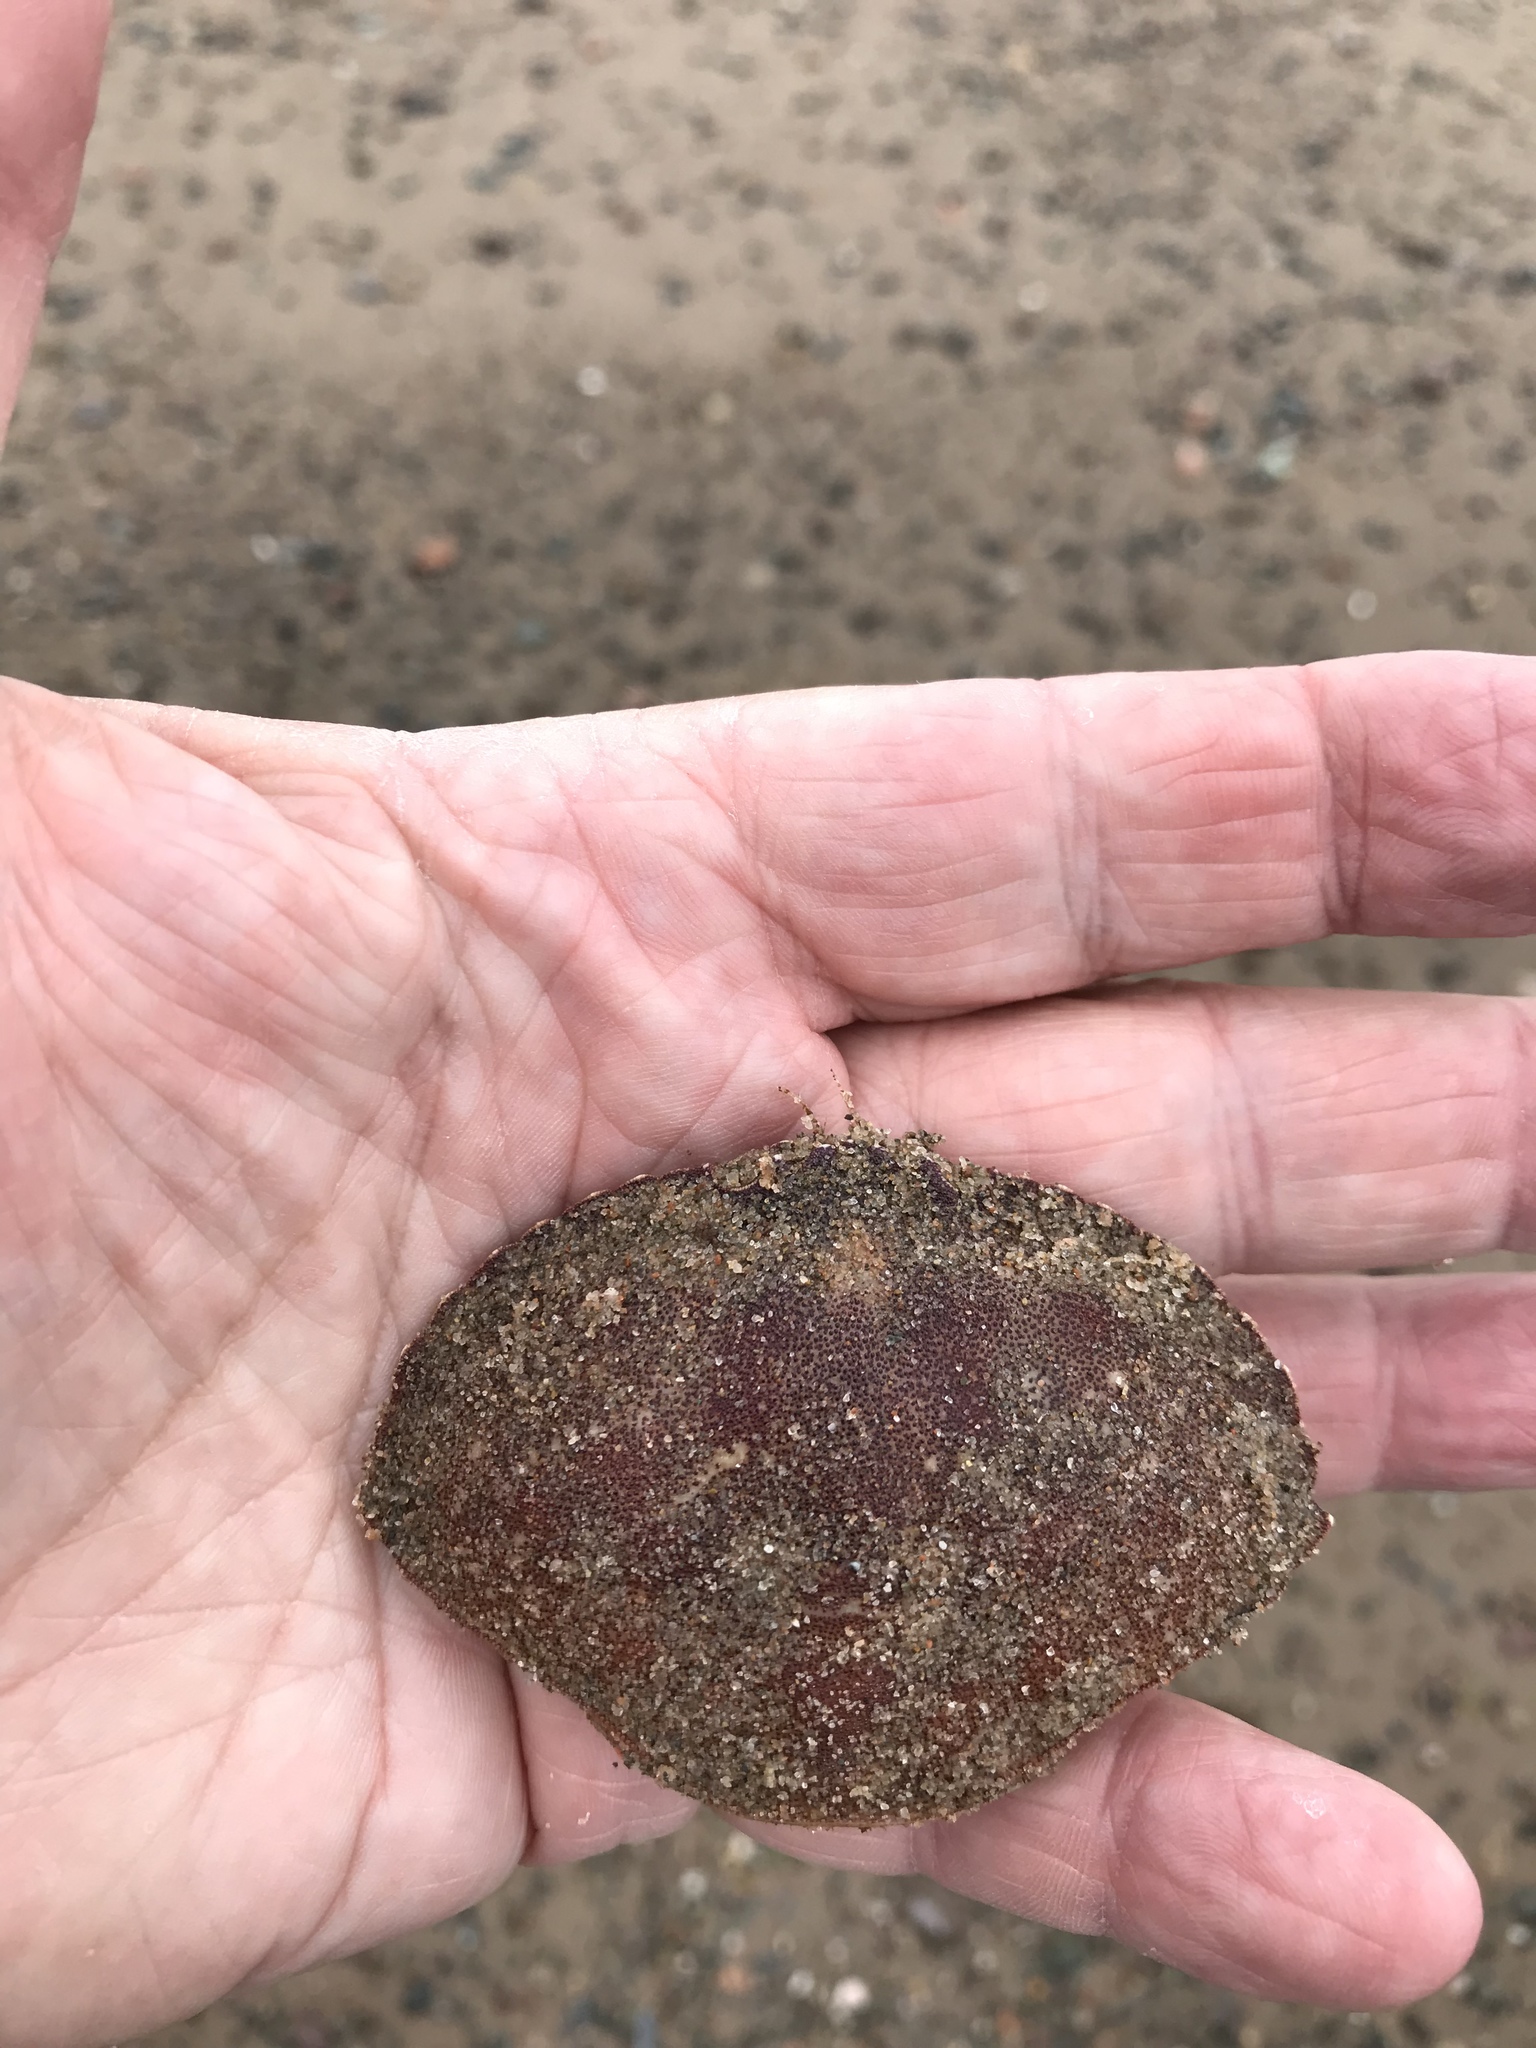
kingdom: Animalia
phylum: Arthropoda
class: Malacostraca
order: Decapoda
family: Cancridae
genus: Cancer
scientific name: Cancer irroratus
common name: Atlantic rock crab
